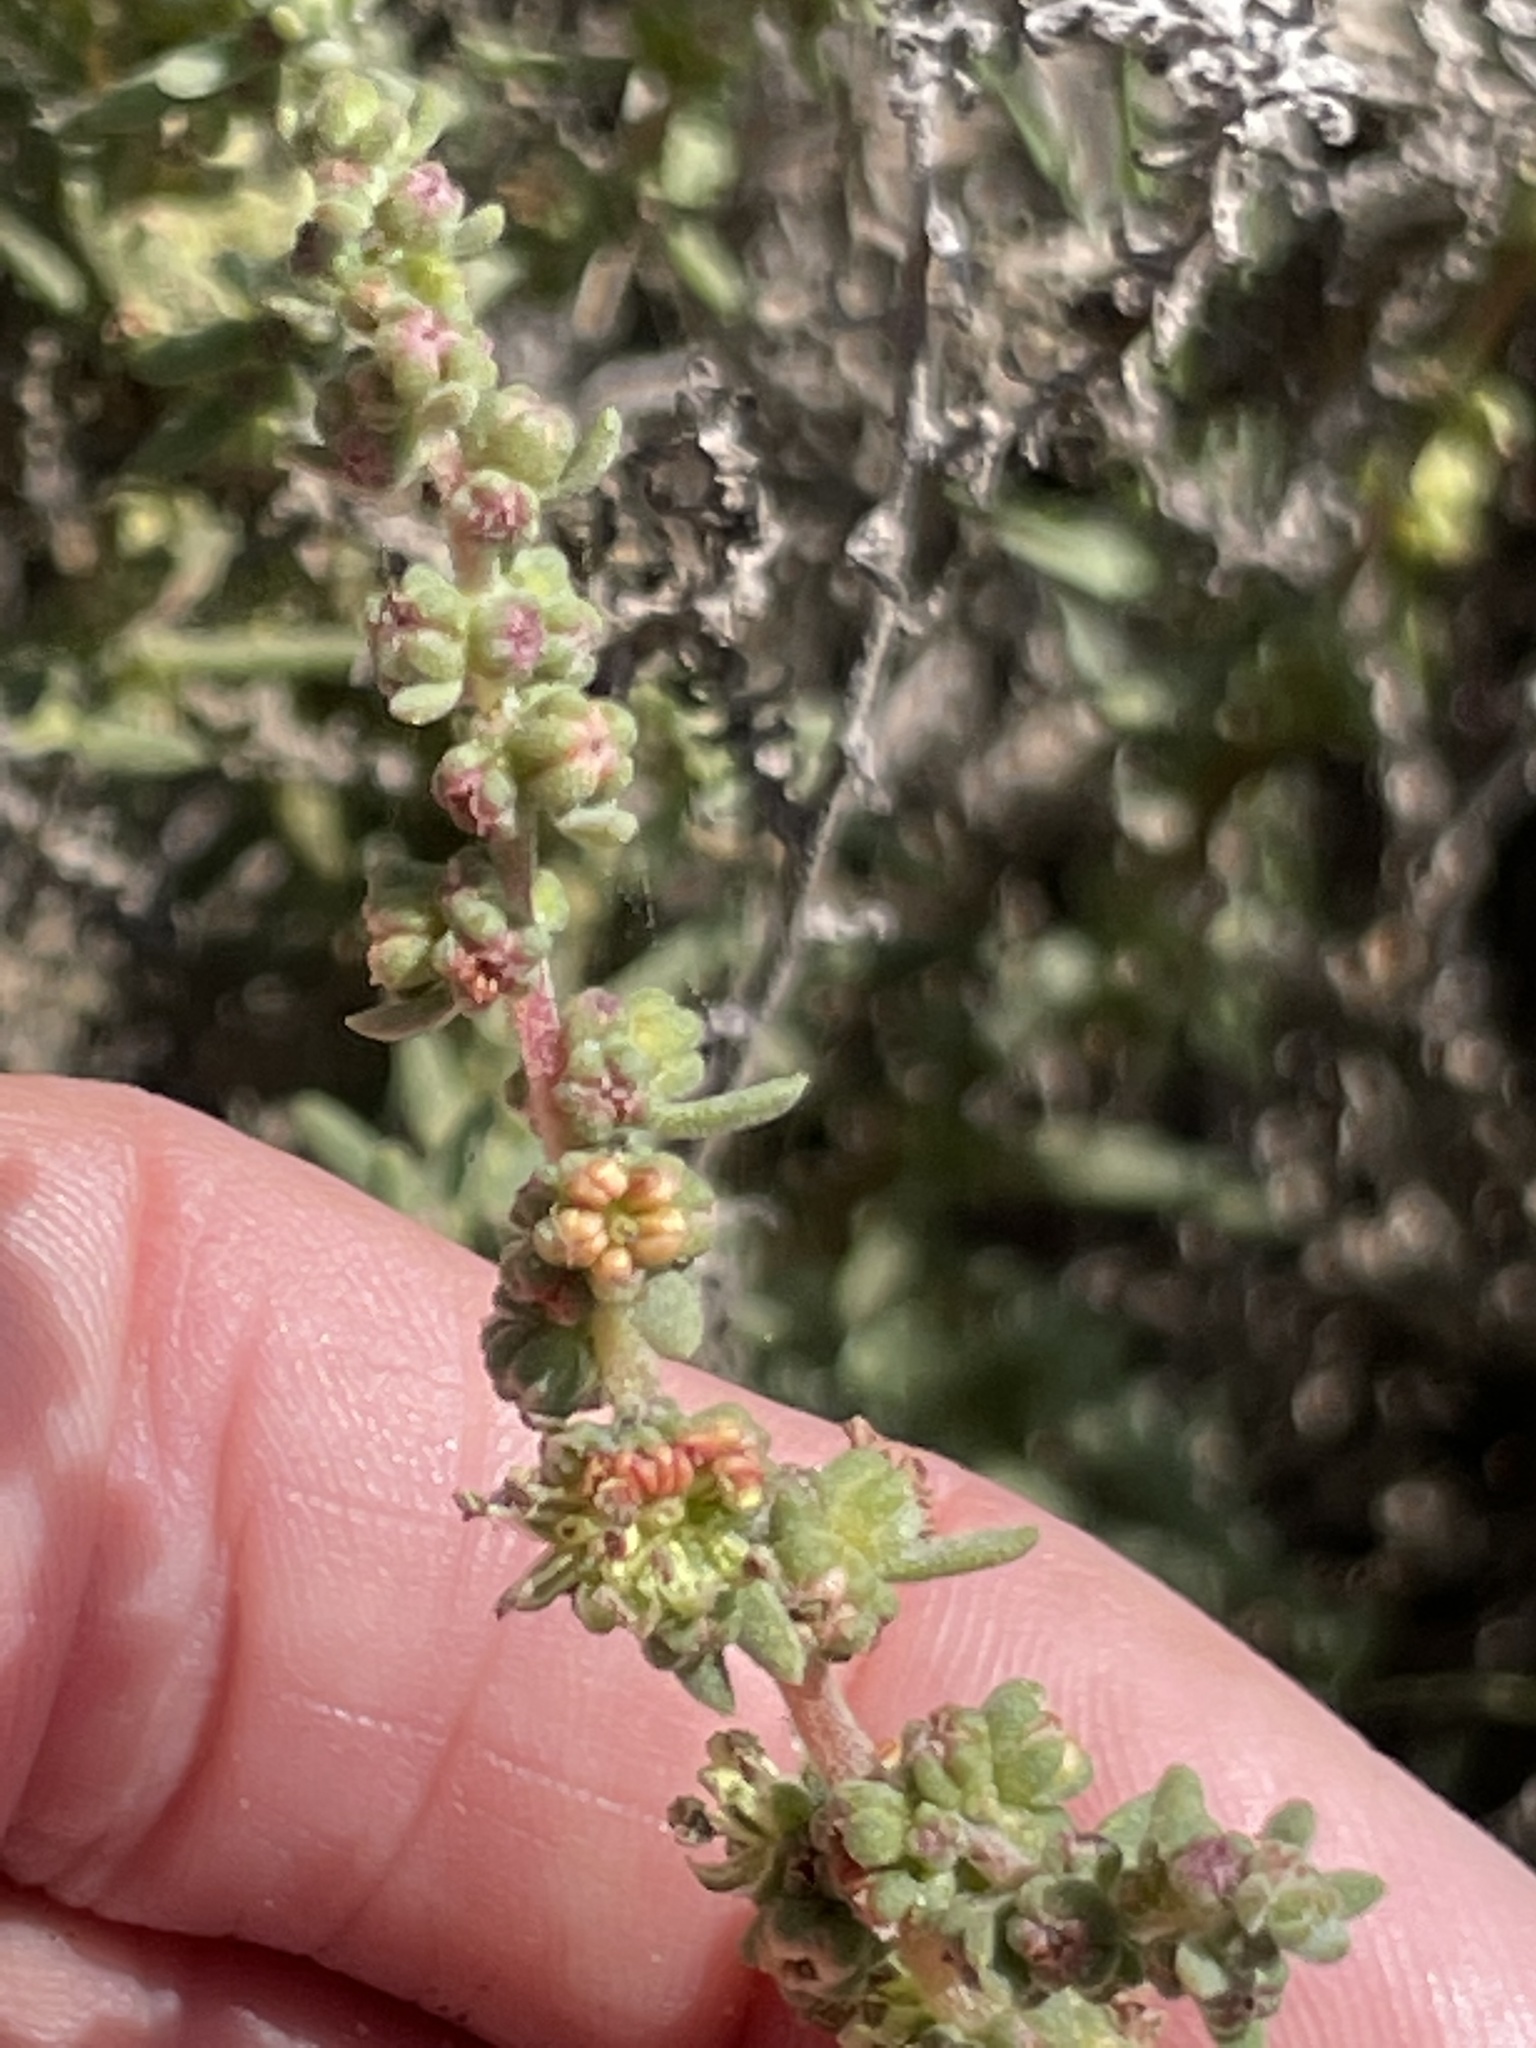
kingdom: Plantae
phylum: Tracheophyta
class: Magnoliopsida
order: Caryophyllales
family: Amaranthaceae
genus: Suaeda
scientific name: Suaeda nigra
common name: Bush seepweed
